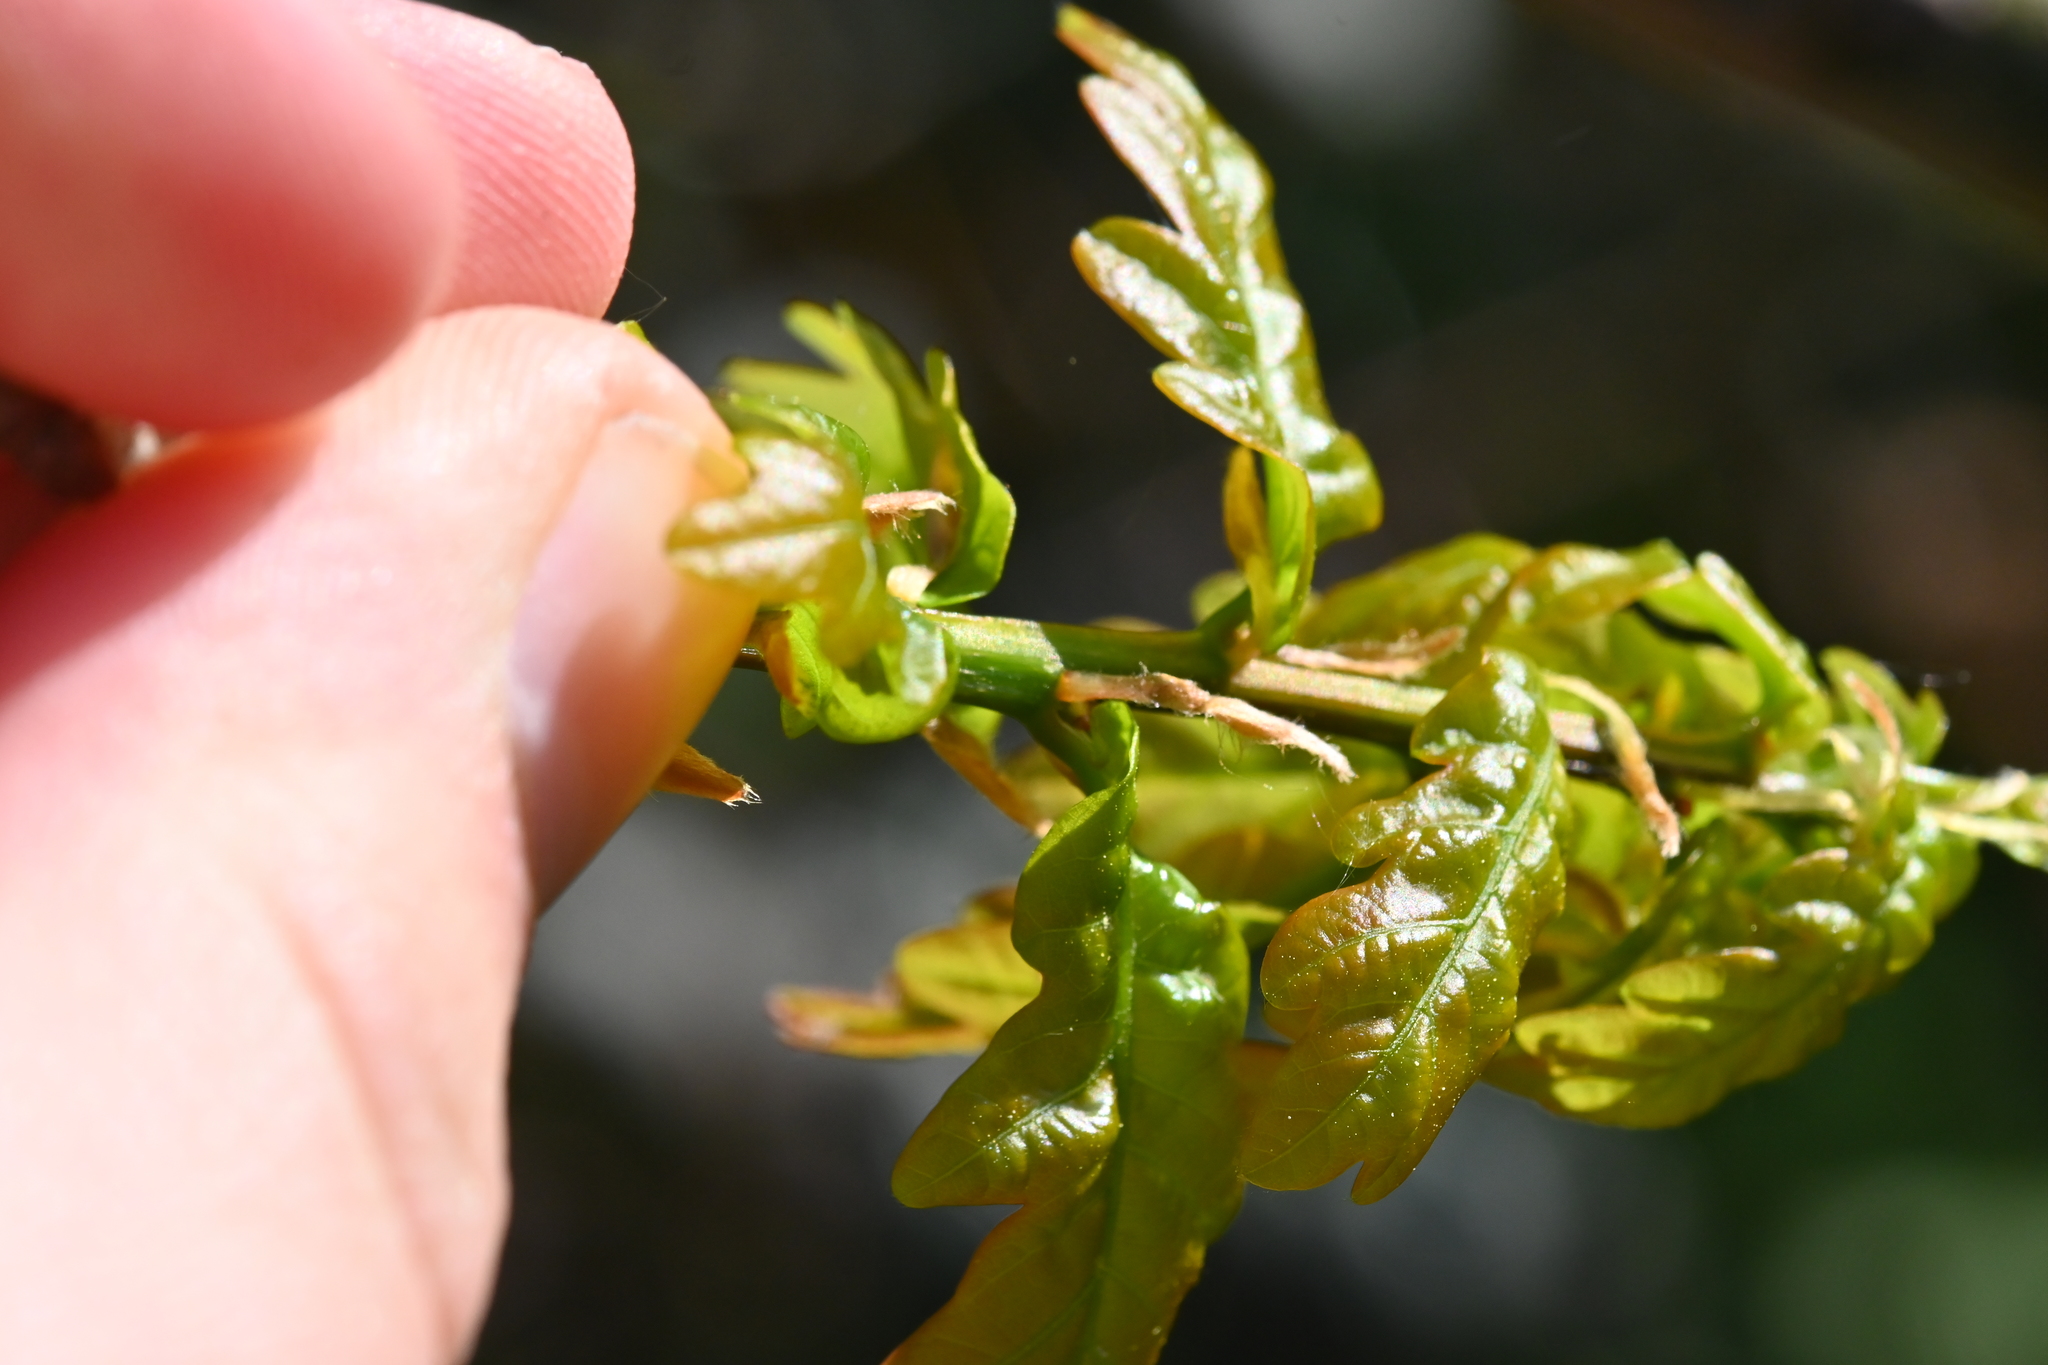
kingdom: Plantae
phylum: Tracheophyta
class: Magnoliopsida
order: Fagales
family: Fagaceae
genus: Quercus
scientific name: Quercus robur
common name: Pedunculate oak
